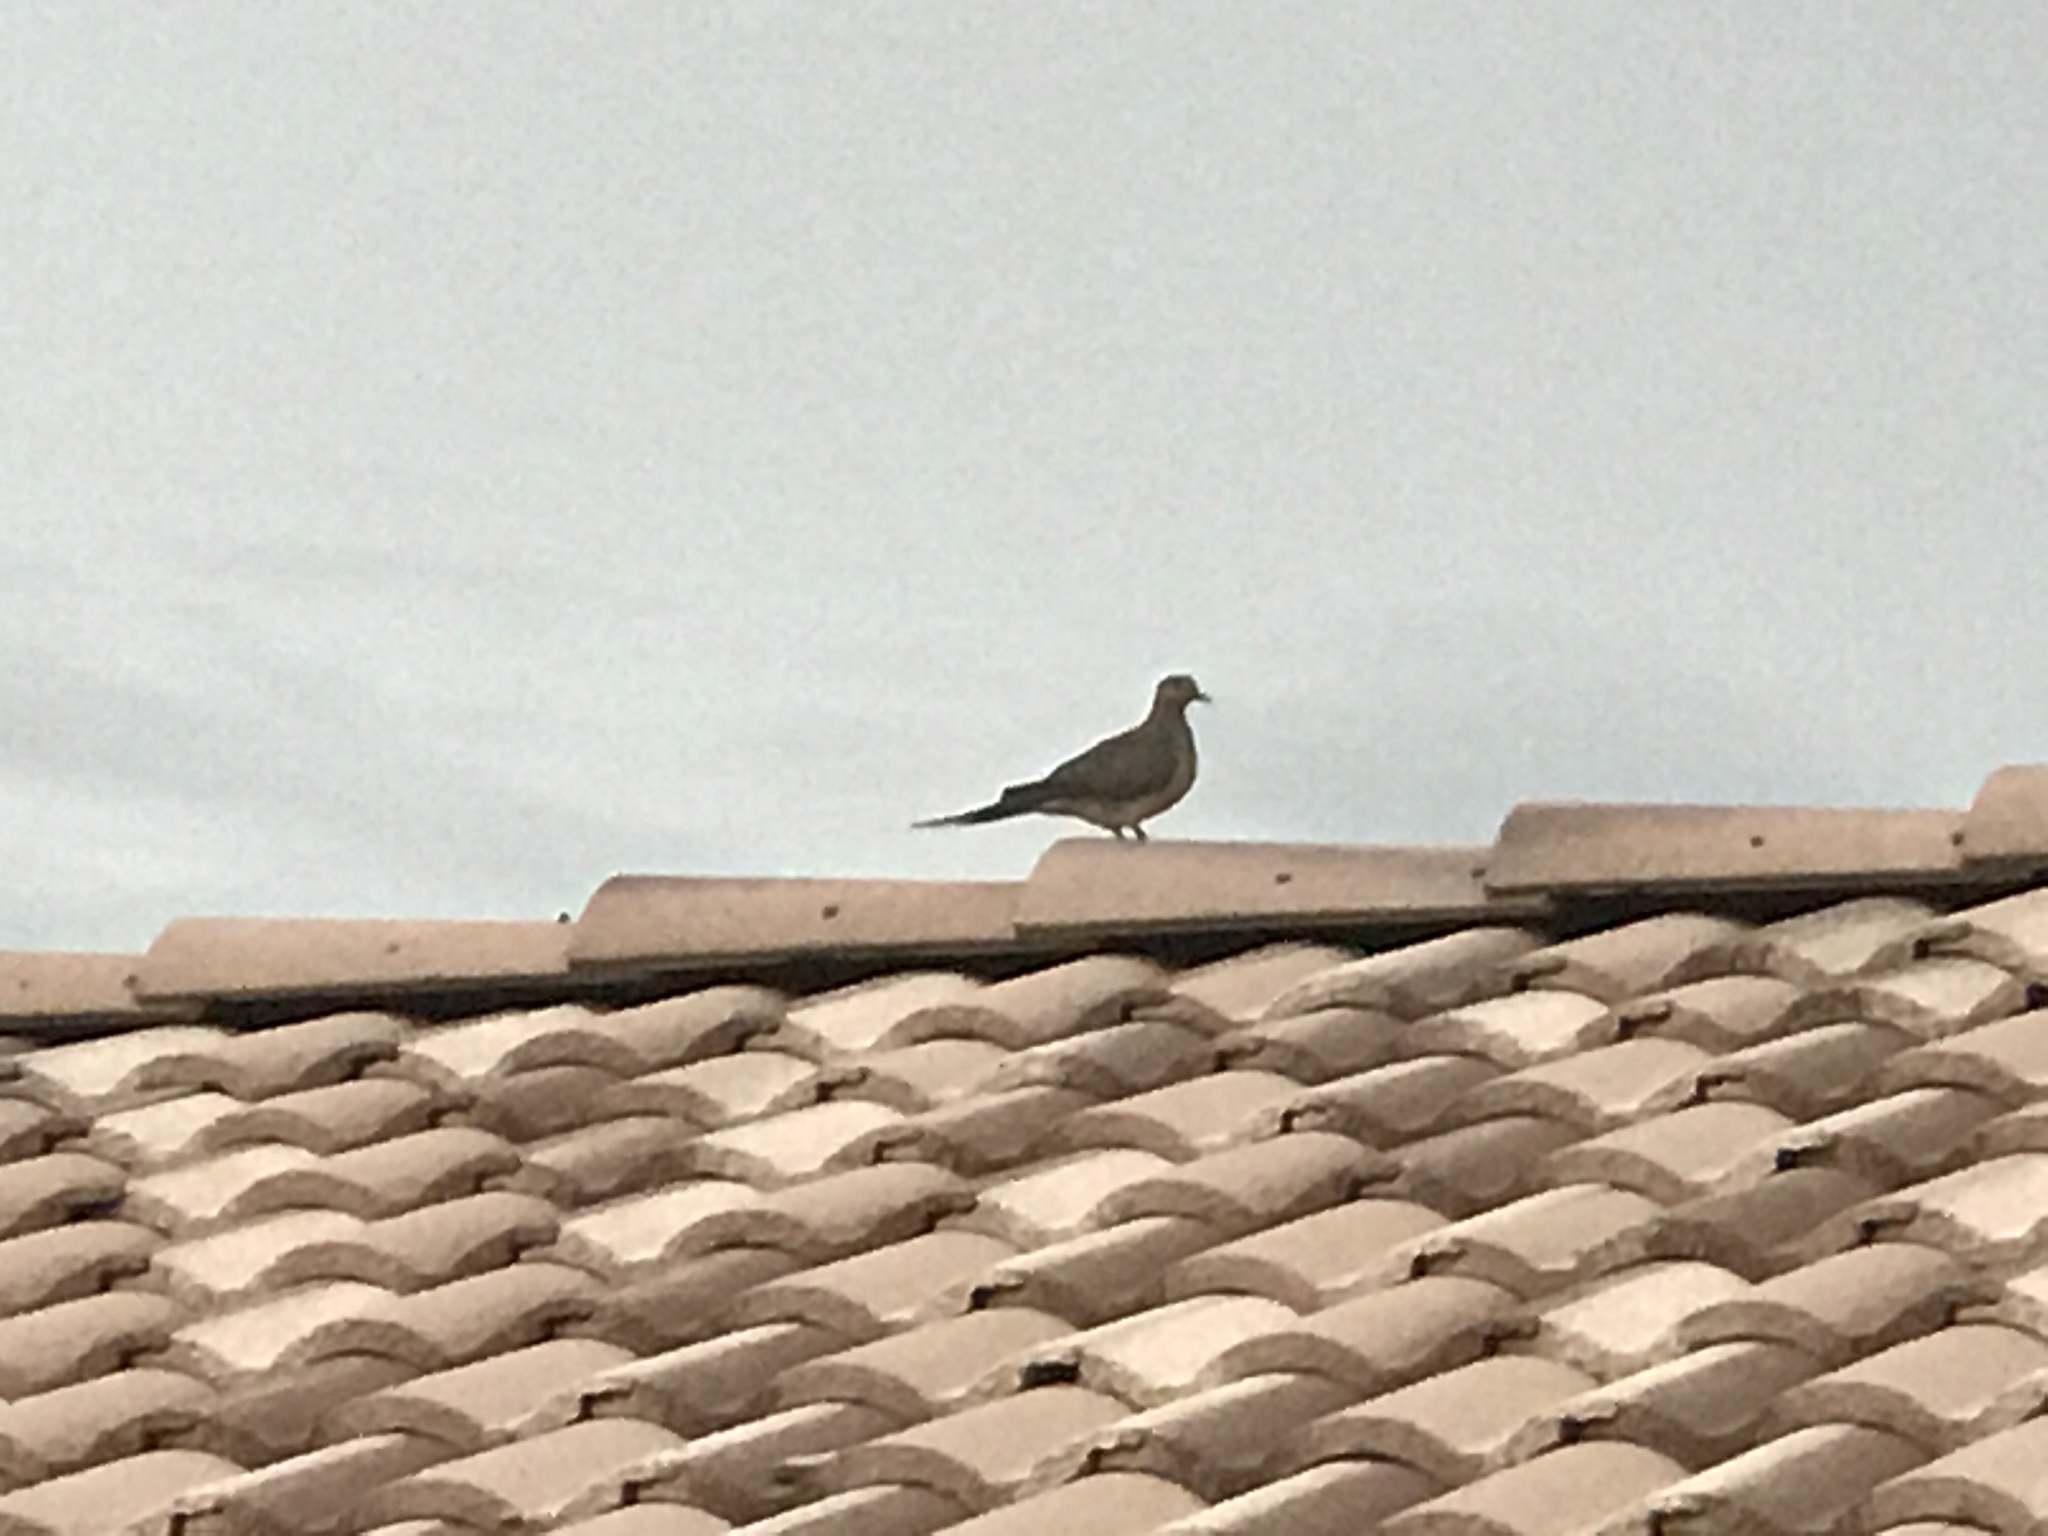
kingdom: Animalia
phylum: Chordata
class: Aves
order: Columbiformes
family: Columbidae
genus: Zenaida
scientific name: Zenaida macroura
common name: Mourning dove
